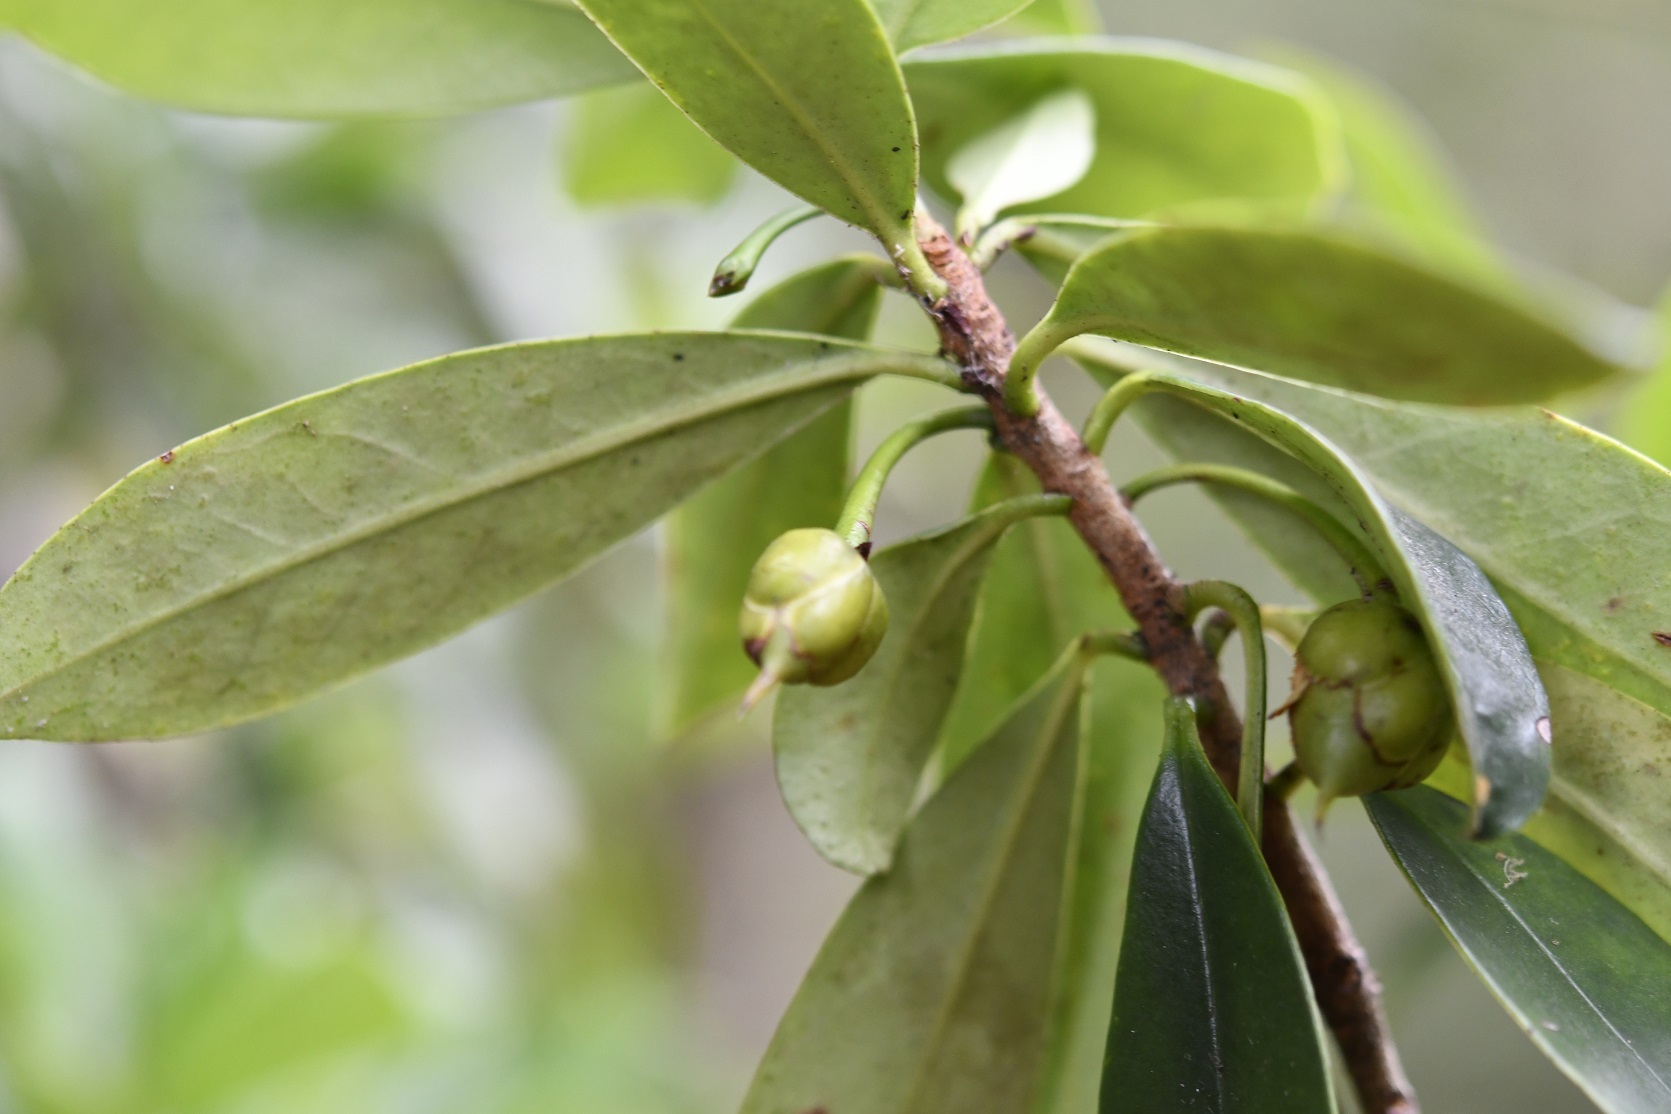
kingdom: Plantae
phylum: Tracheophyta
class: Magnoliopsida
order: Ericales
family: Pentaphylacaceae
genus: Ternstroemia
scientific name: Ternstroemia lineata
